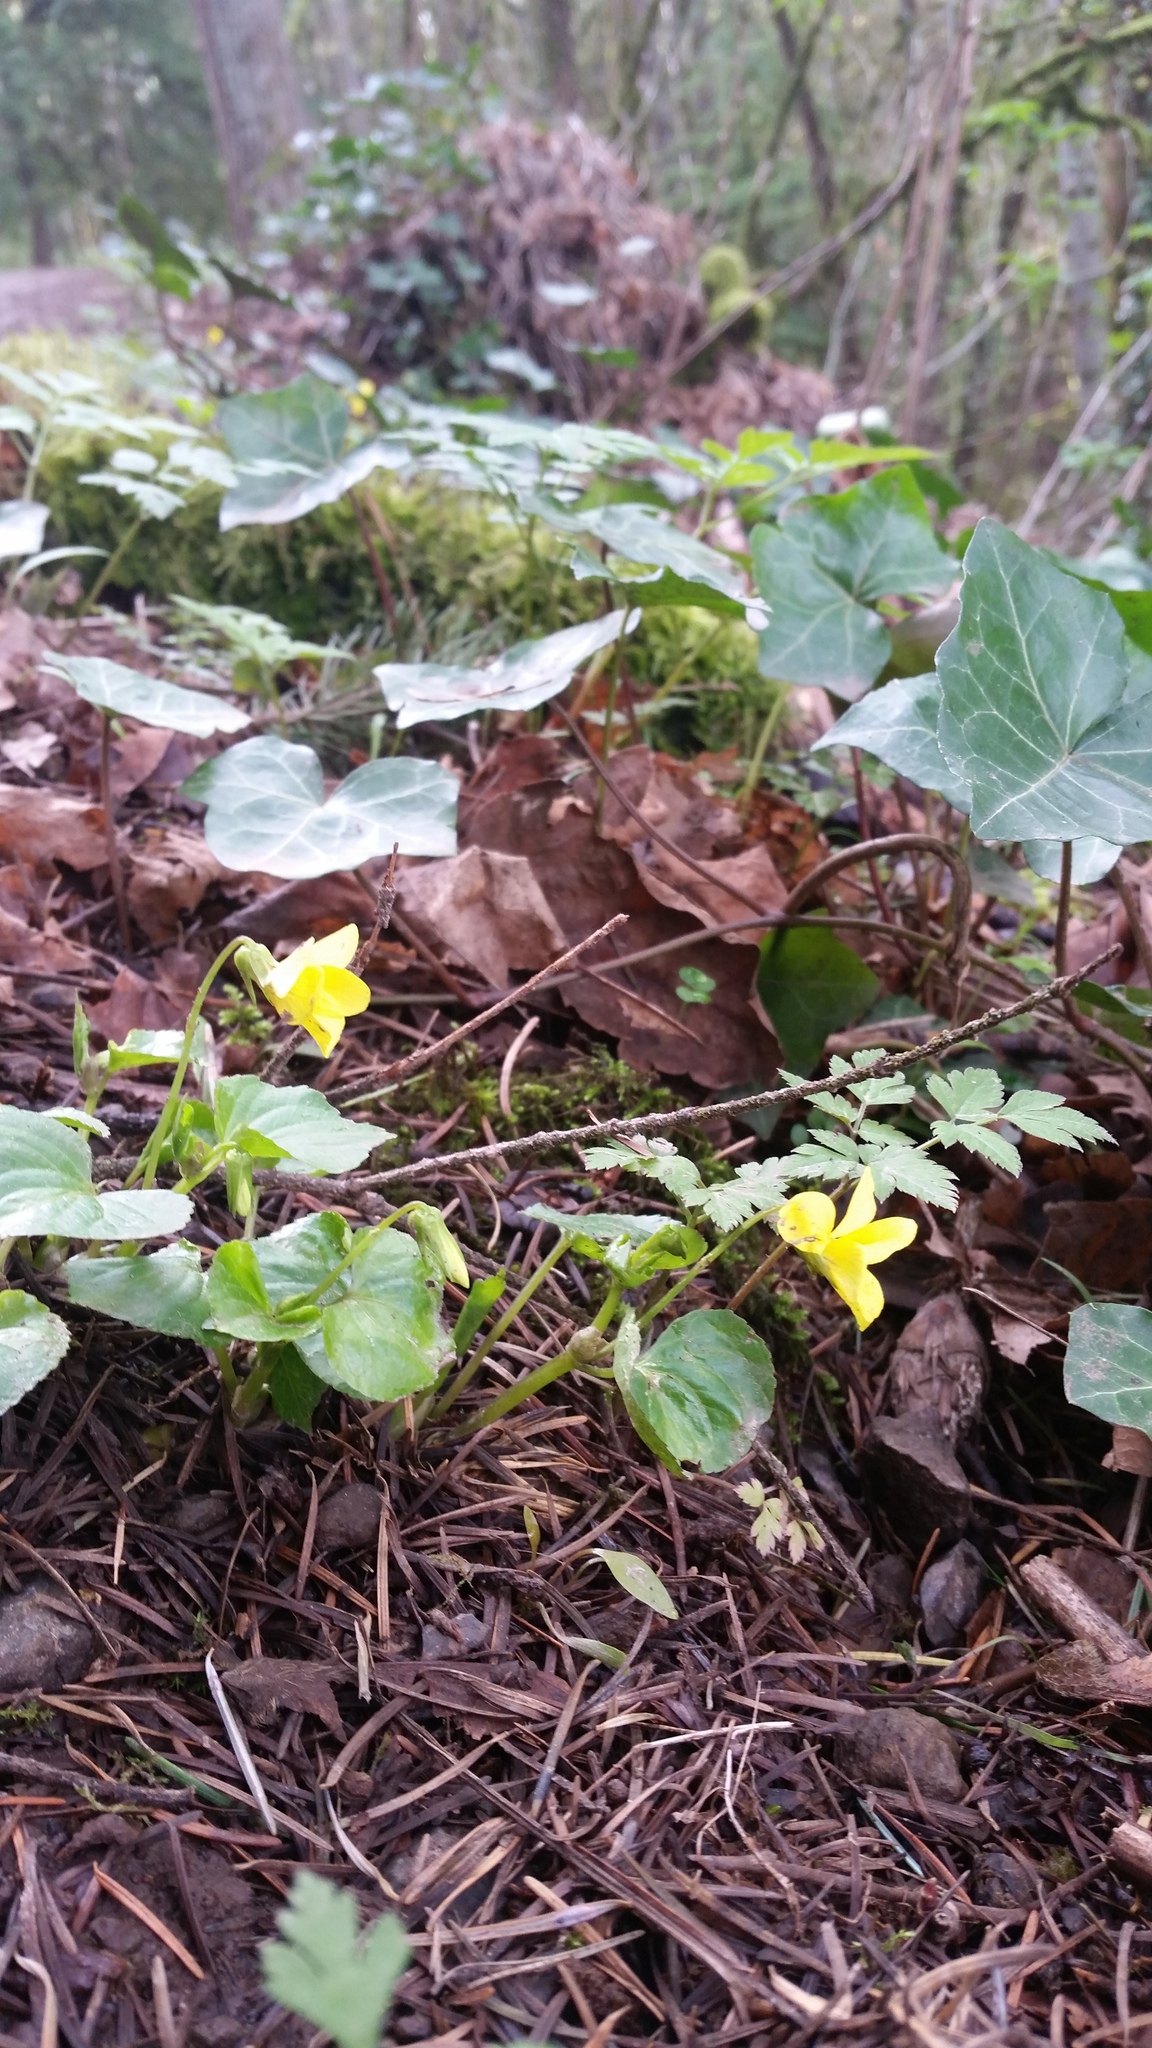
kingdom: Plantae
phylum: Tracheophyta
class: Magnoliopsida
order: Malpighiales
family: Violaceae
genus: Viola
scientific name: Viola glabella
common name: Stream violet
